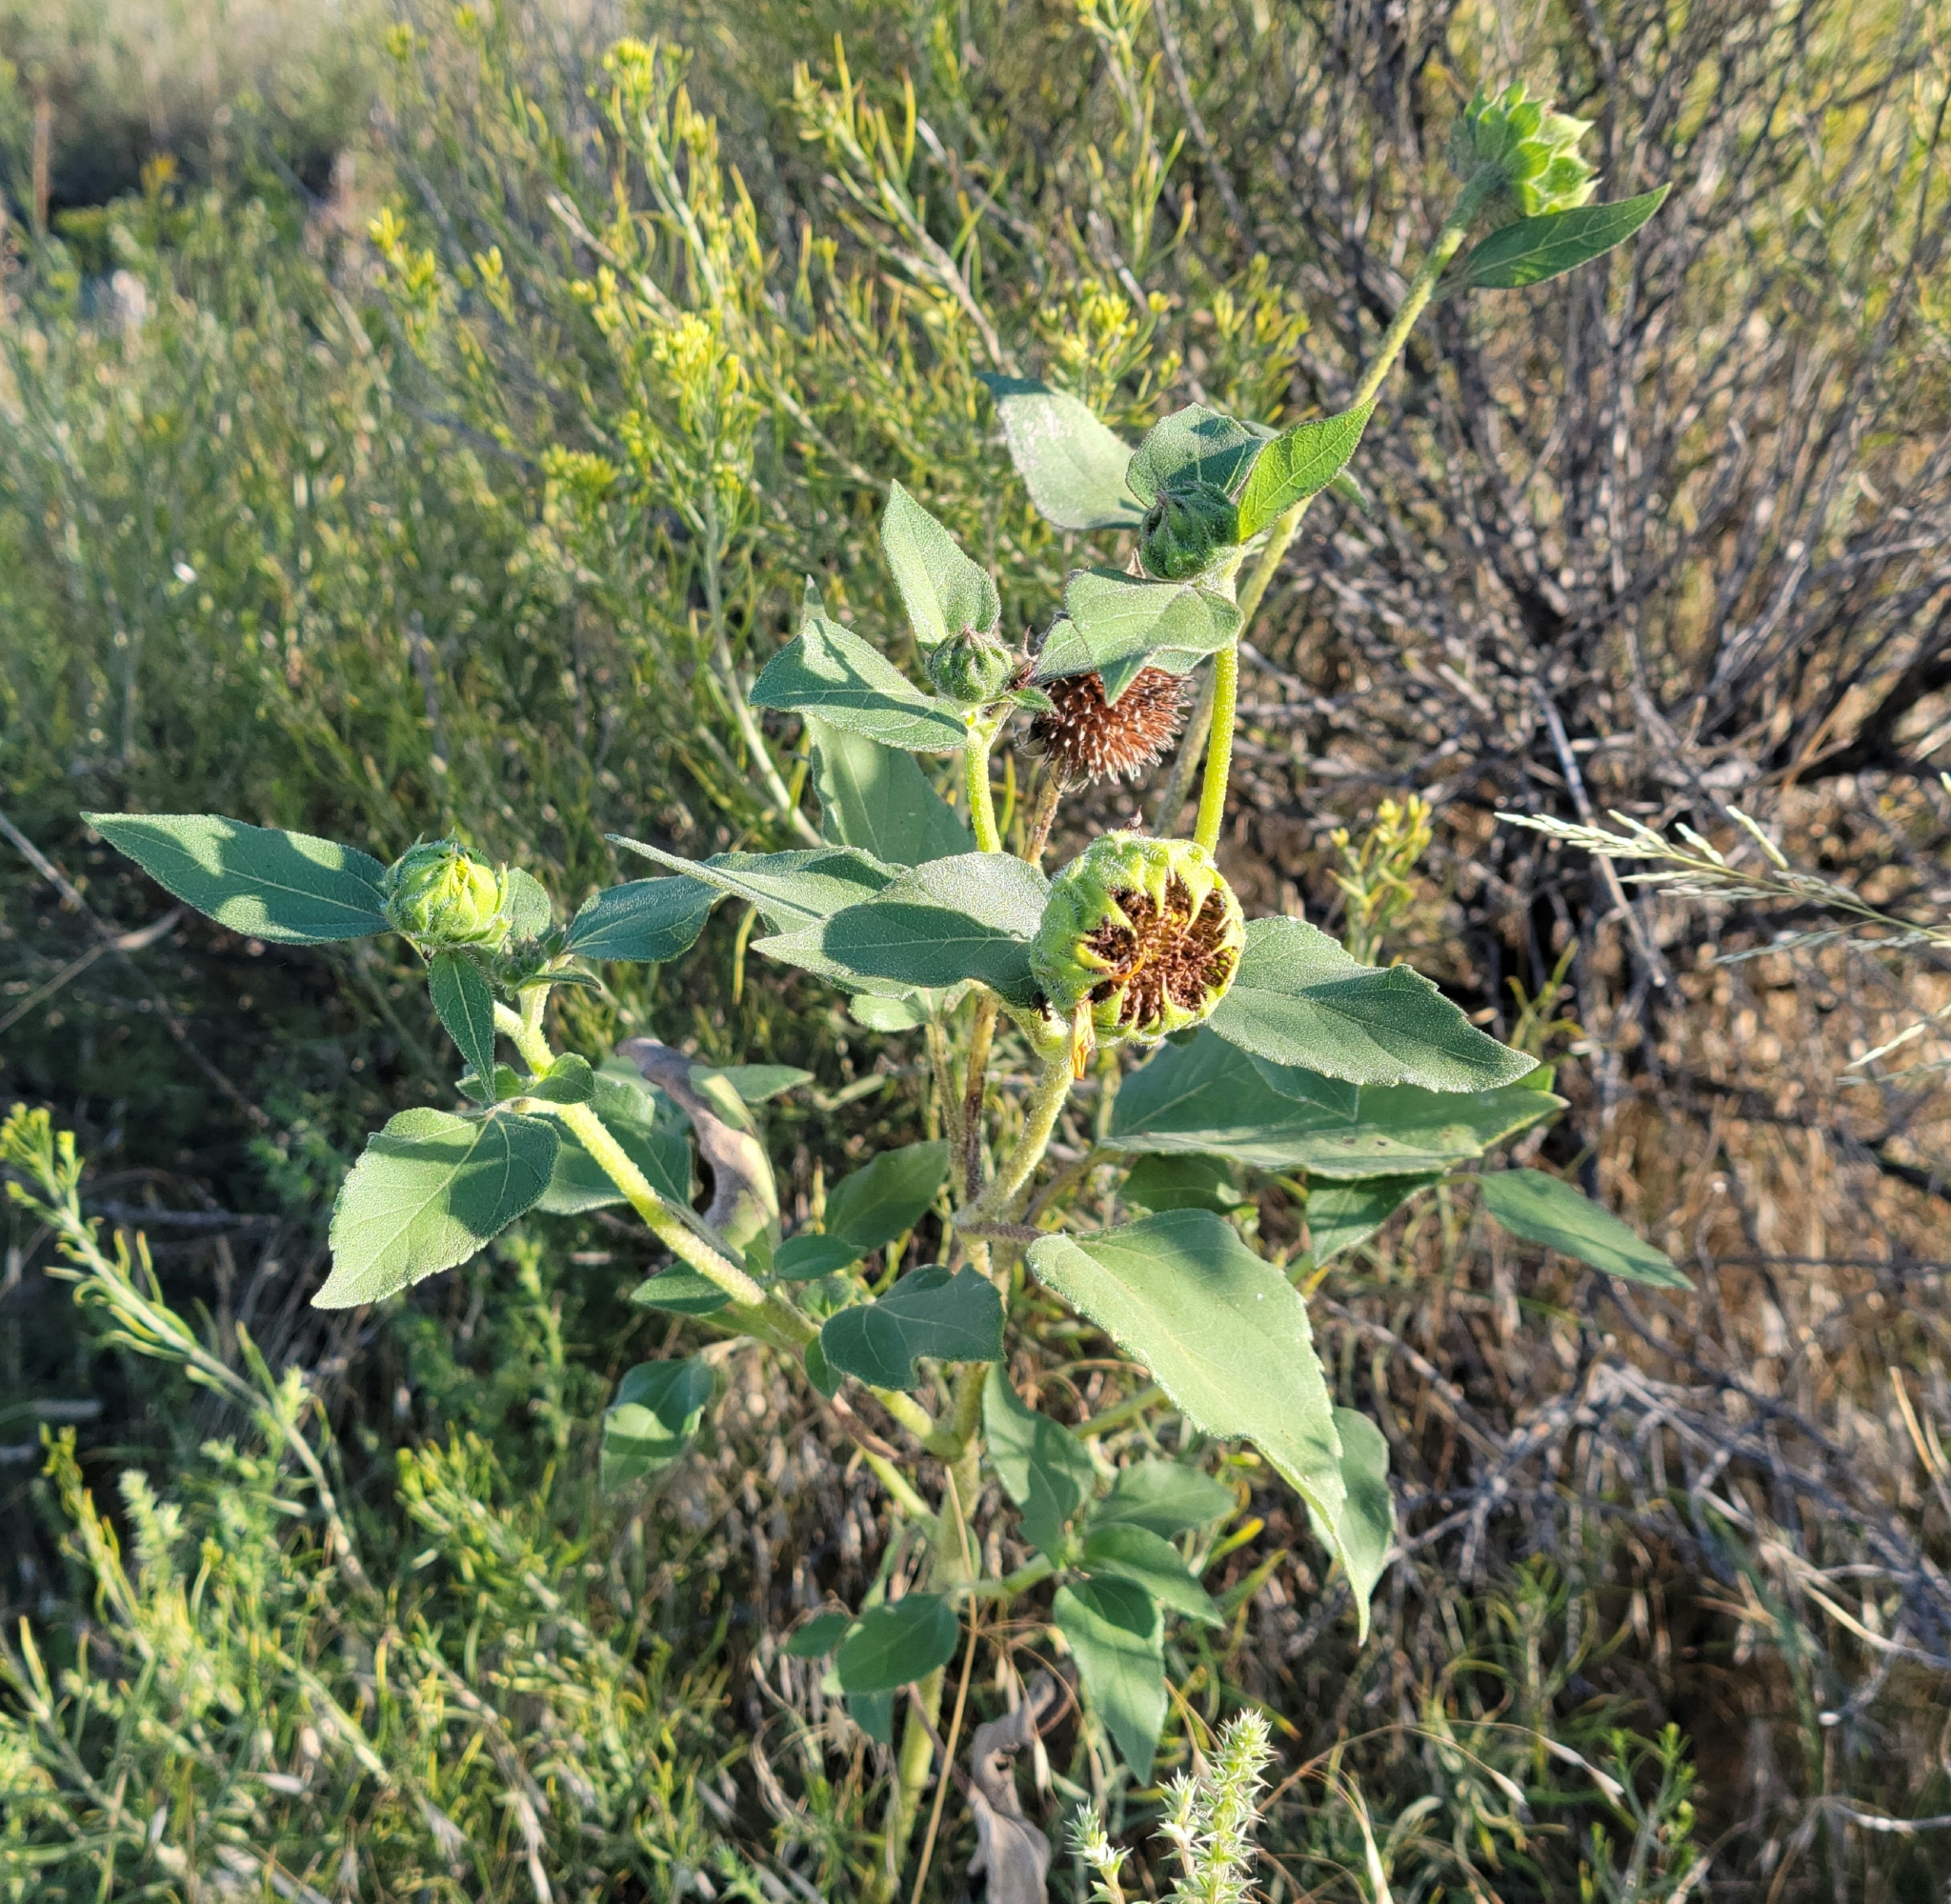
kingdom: Plantae
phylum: Tracheophyta
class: Magnoliopsida
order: Asterales
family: Asteraceae
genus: Helianthus
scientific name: Helianthus annuus
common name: Sunflower
